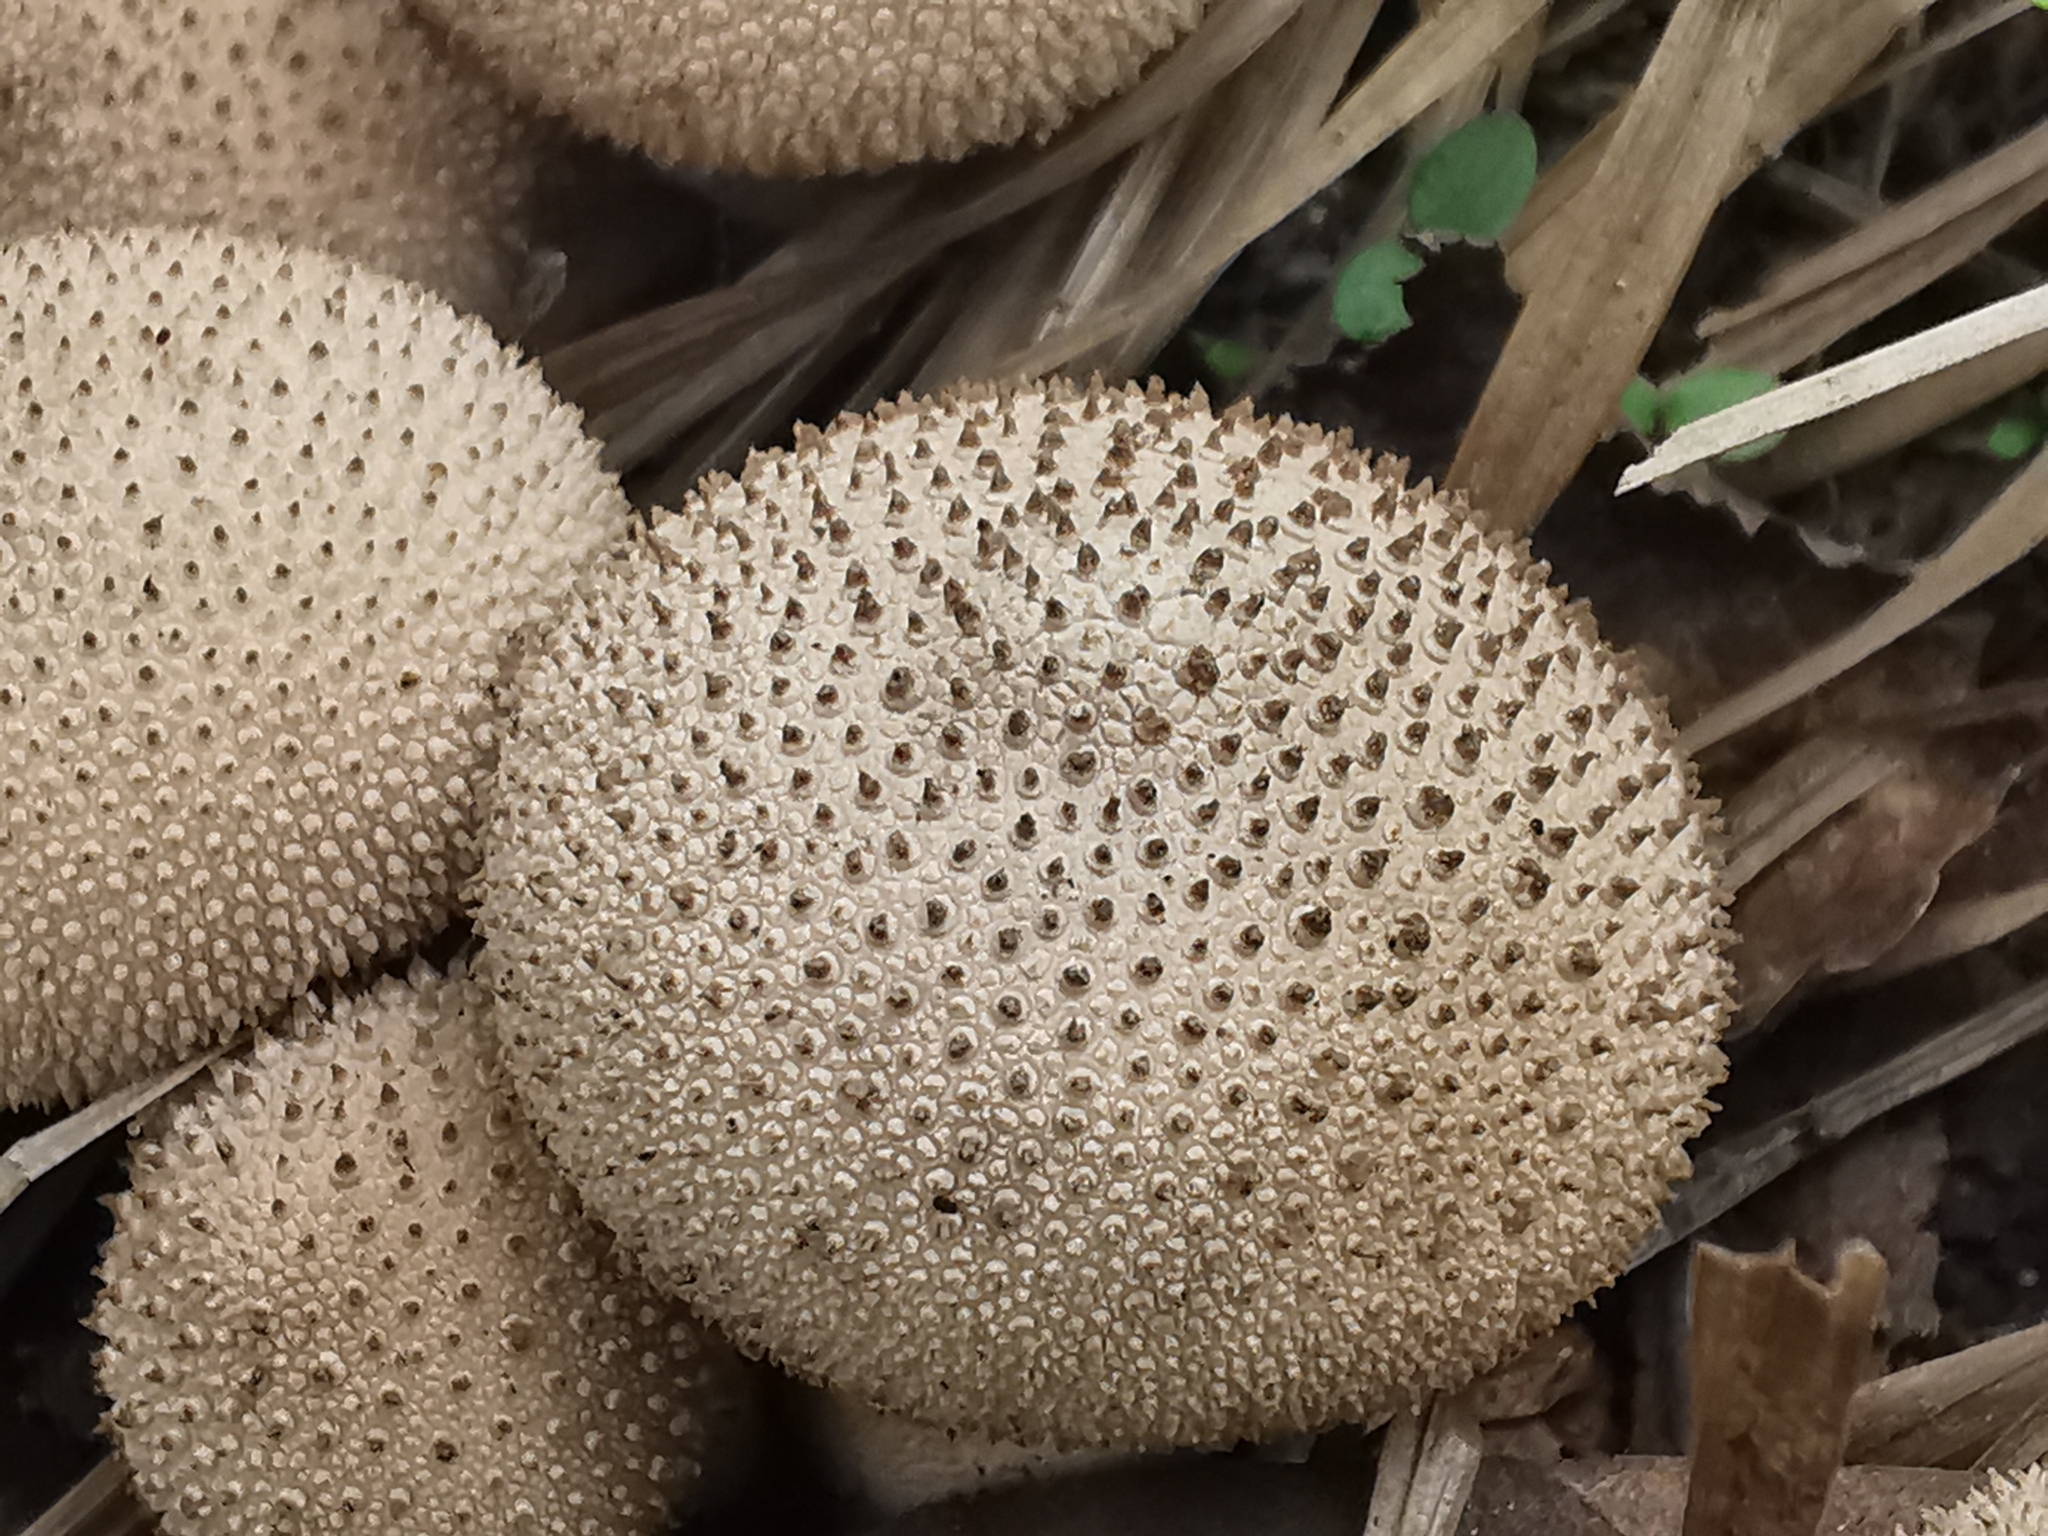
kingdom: Fungi
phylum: Basidiomycota
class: Agaricomycetes
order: Agaricales
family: Lycoperdaceae
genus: Lycoperdon
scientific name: Lycoperdon perlatum
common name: Common puffball
